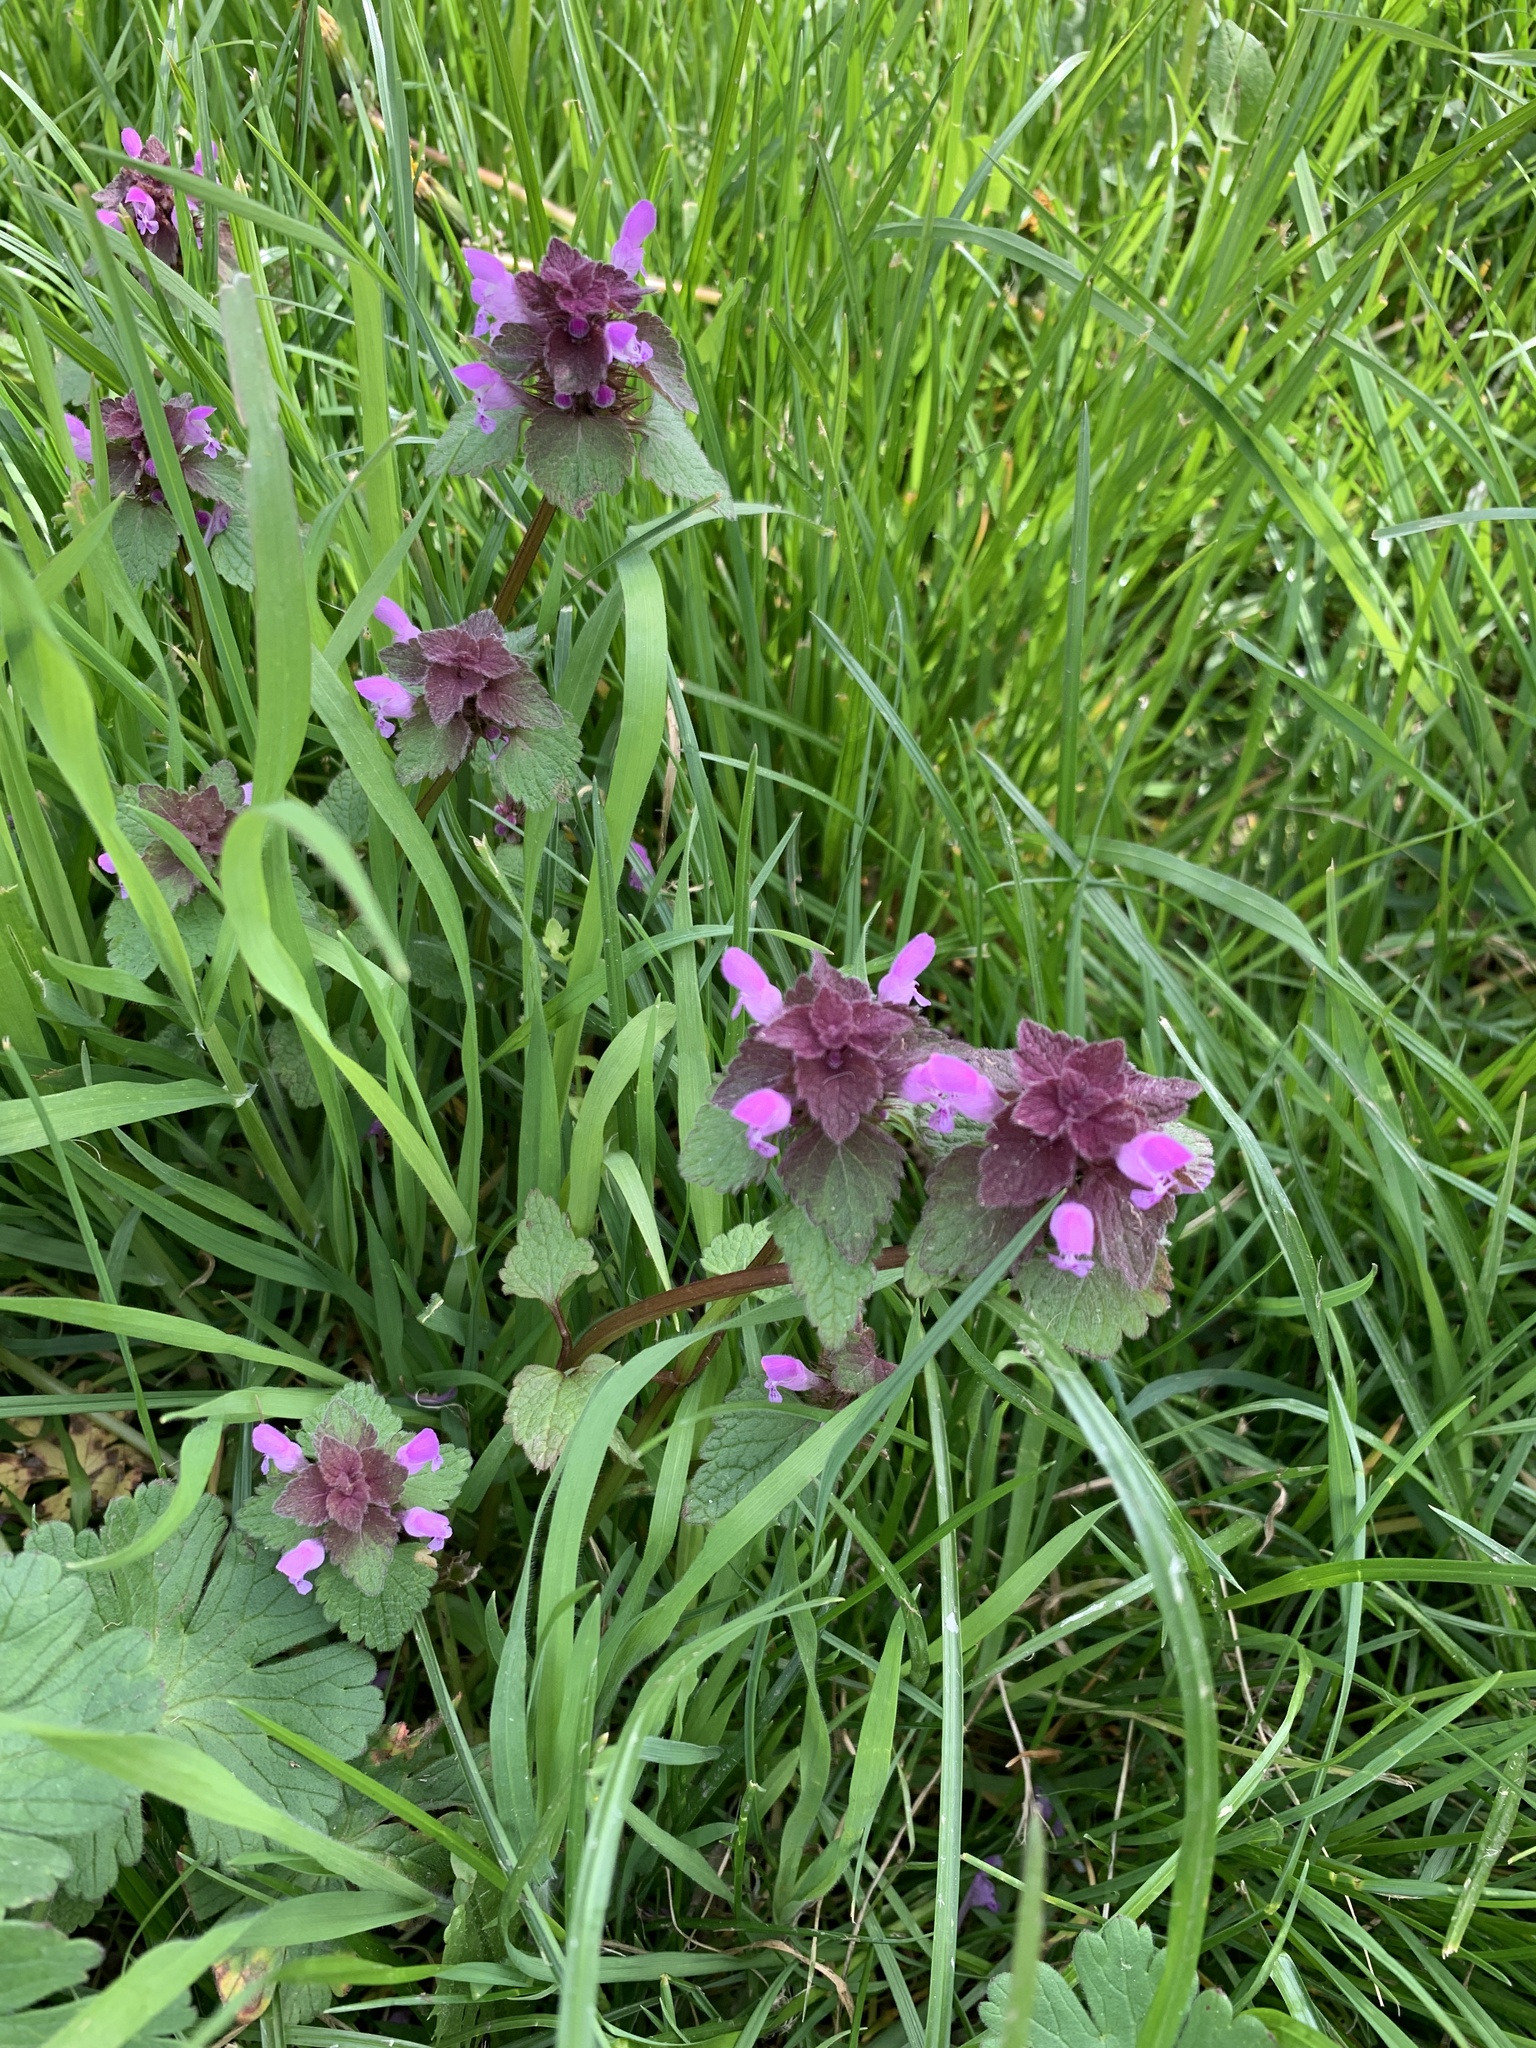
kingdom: Plantae
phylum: Tracheophyta
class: Magnoliopsida
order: Lamiales
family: Lamiaceae
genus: Lamium
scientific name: Lamium purpureum
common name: Red dead-nettle
